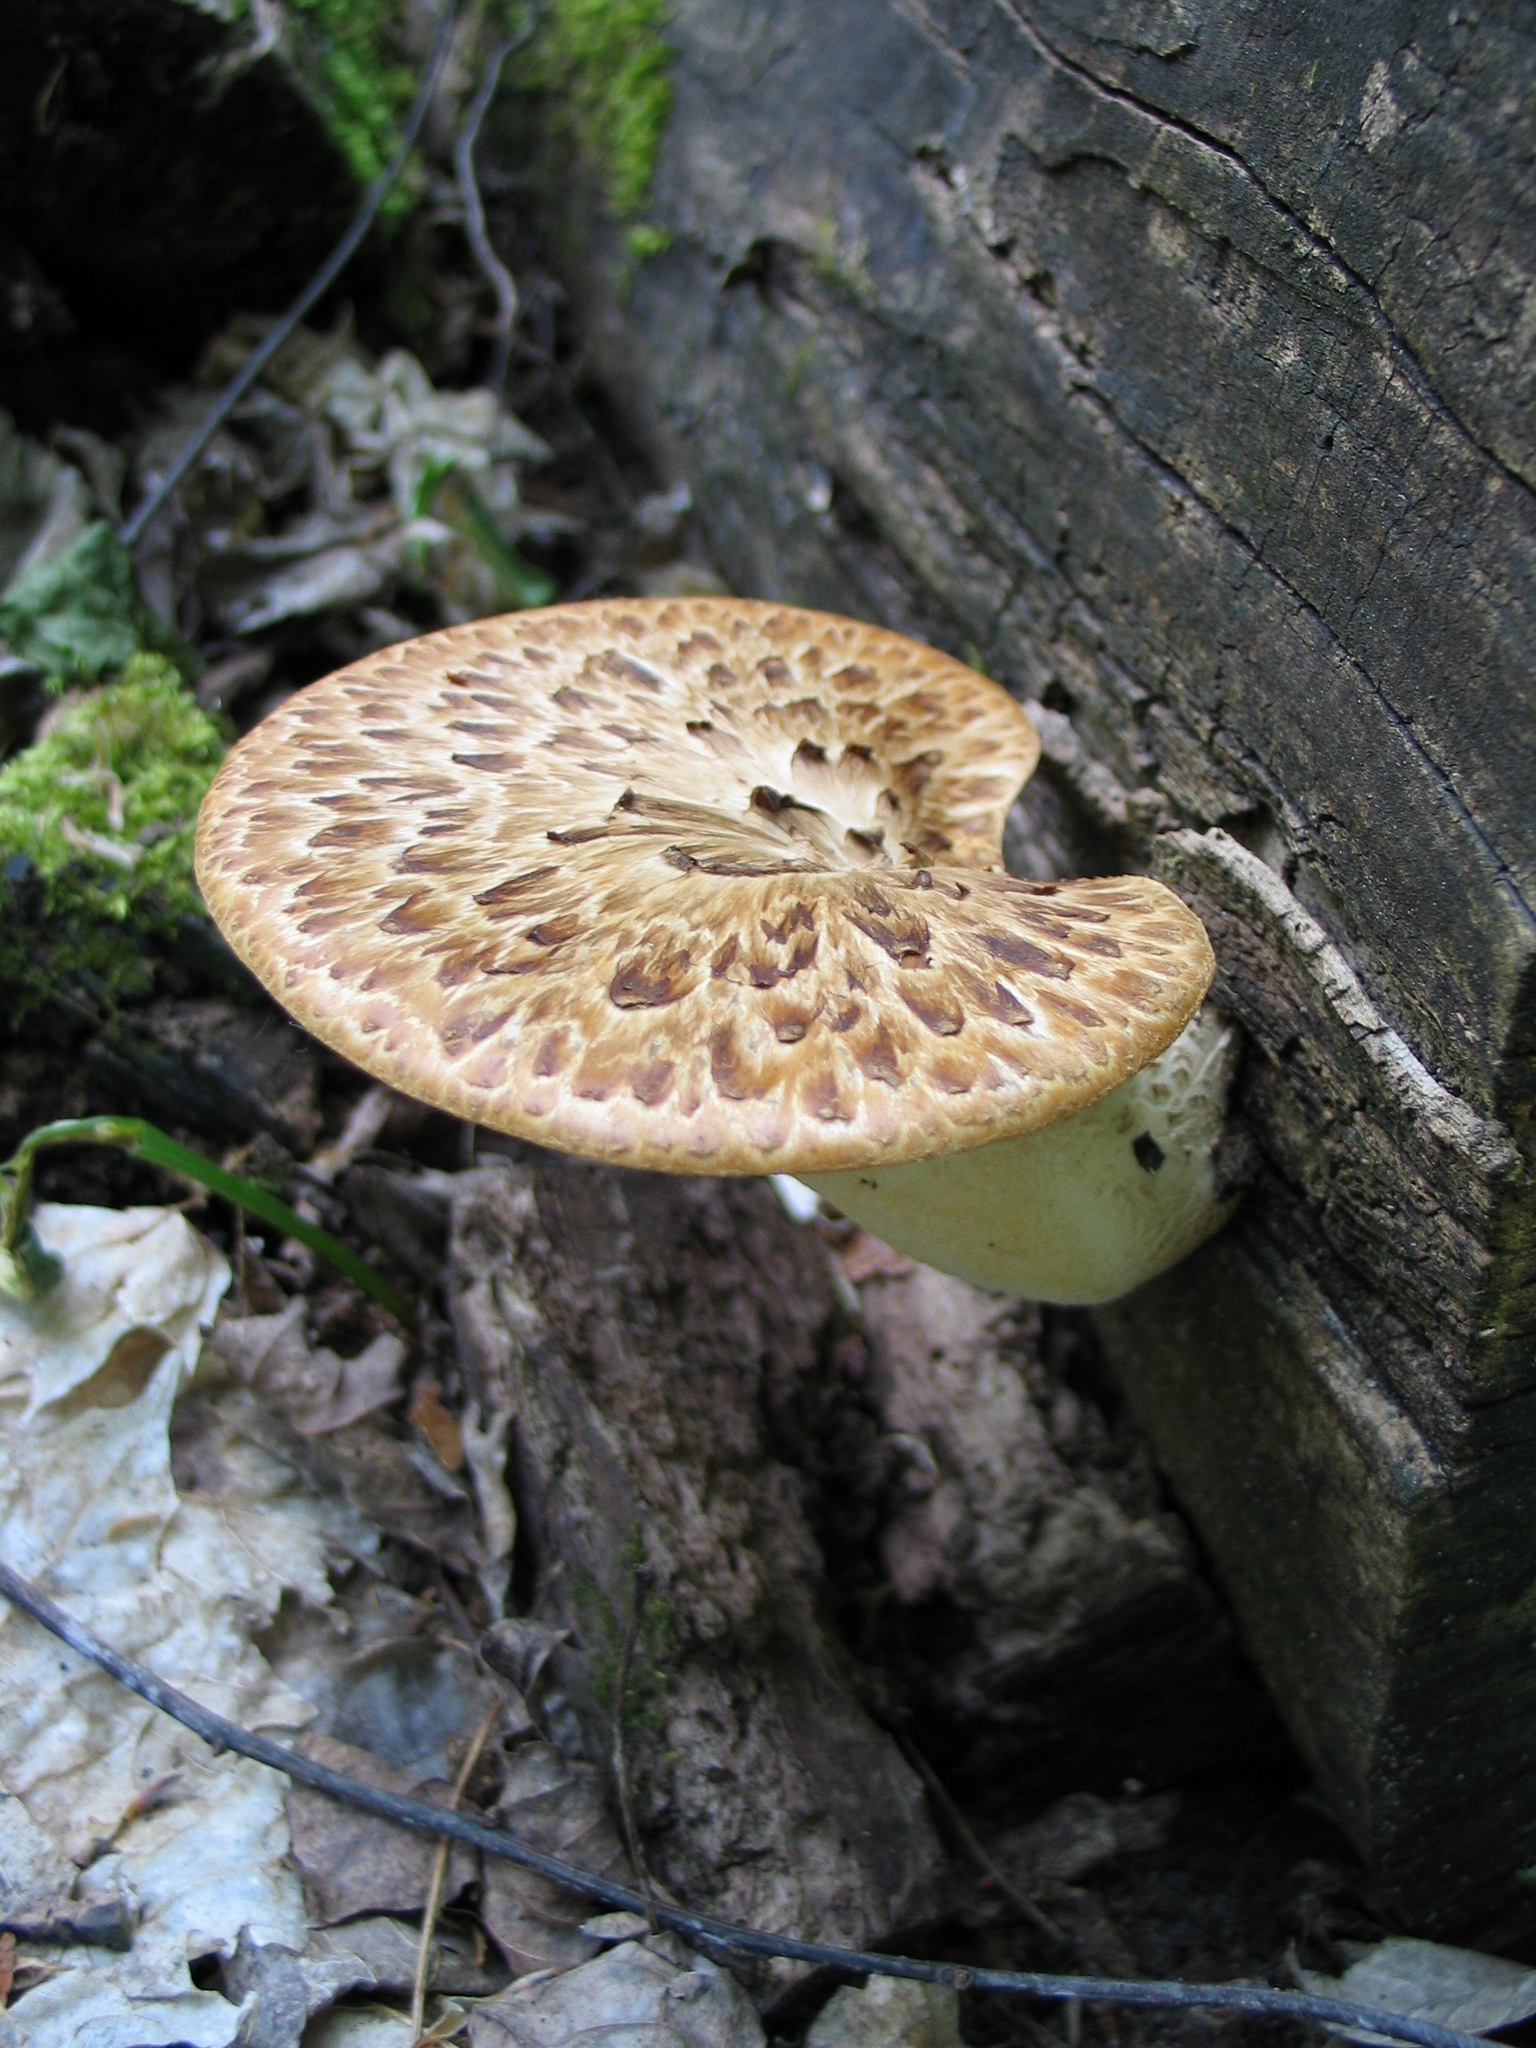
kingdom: Fungi
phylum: Basidiomycota
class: Agaricomycetes
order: Polyporales
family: Polyporaceae
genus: Cerioporus
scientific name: Cerioporus squamosus
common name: Dryad's saddle
